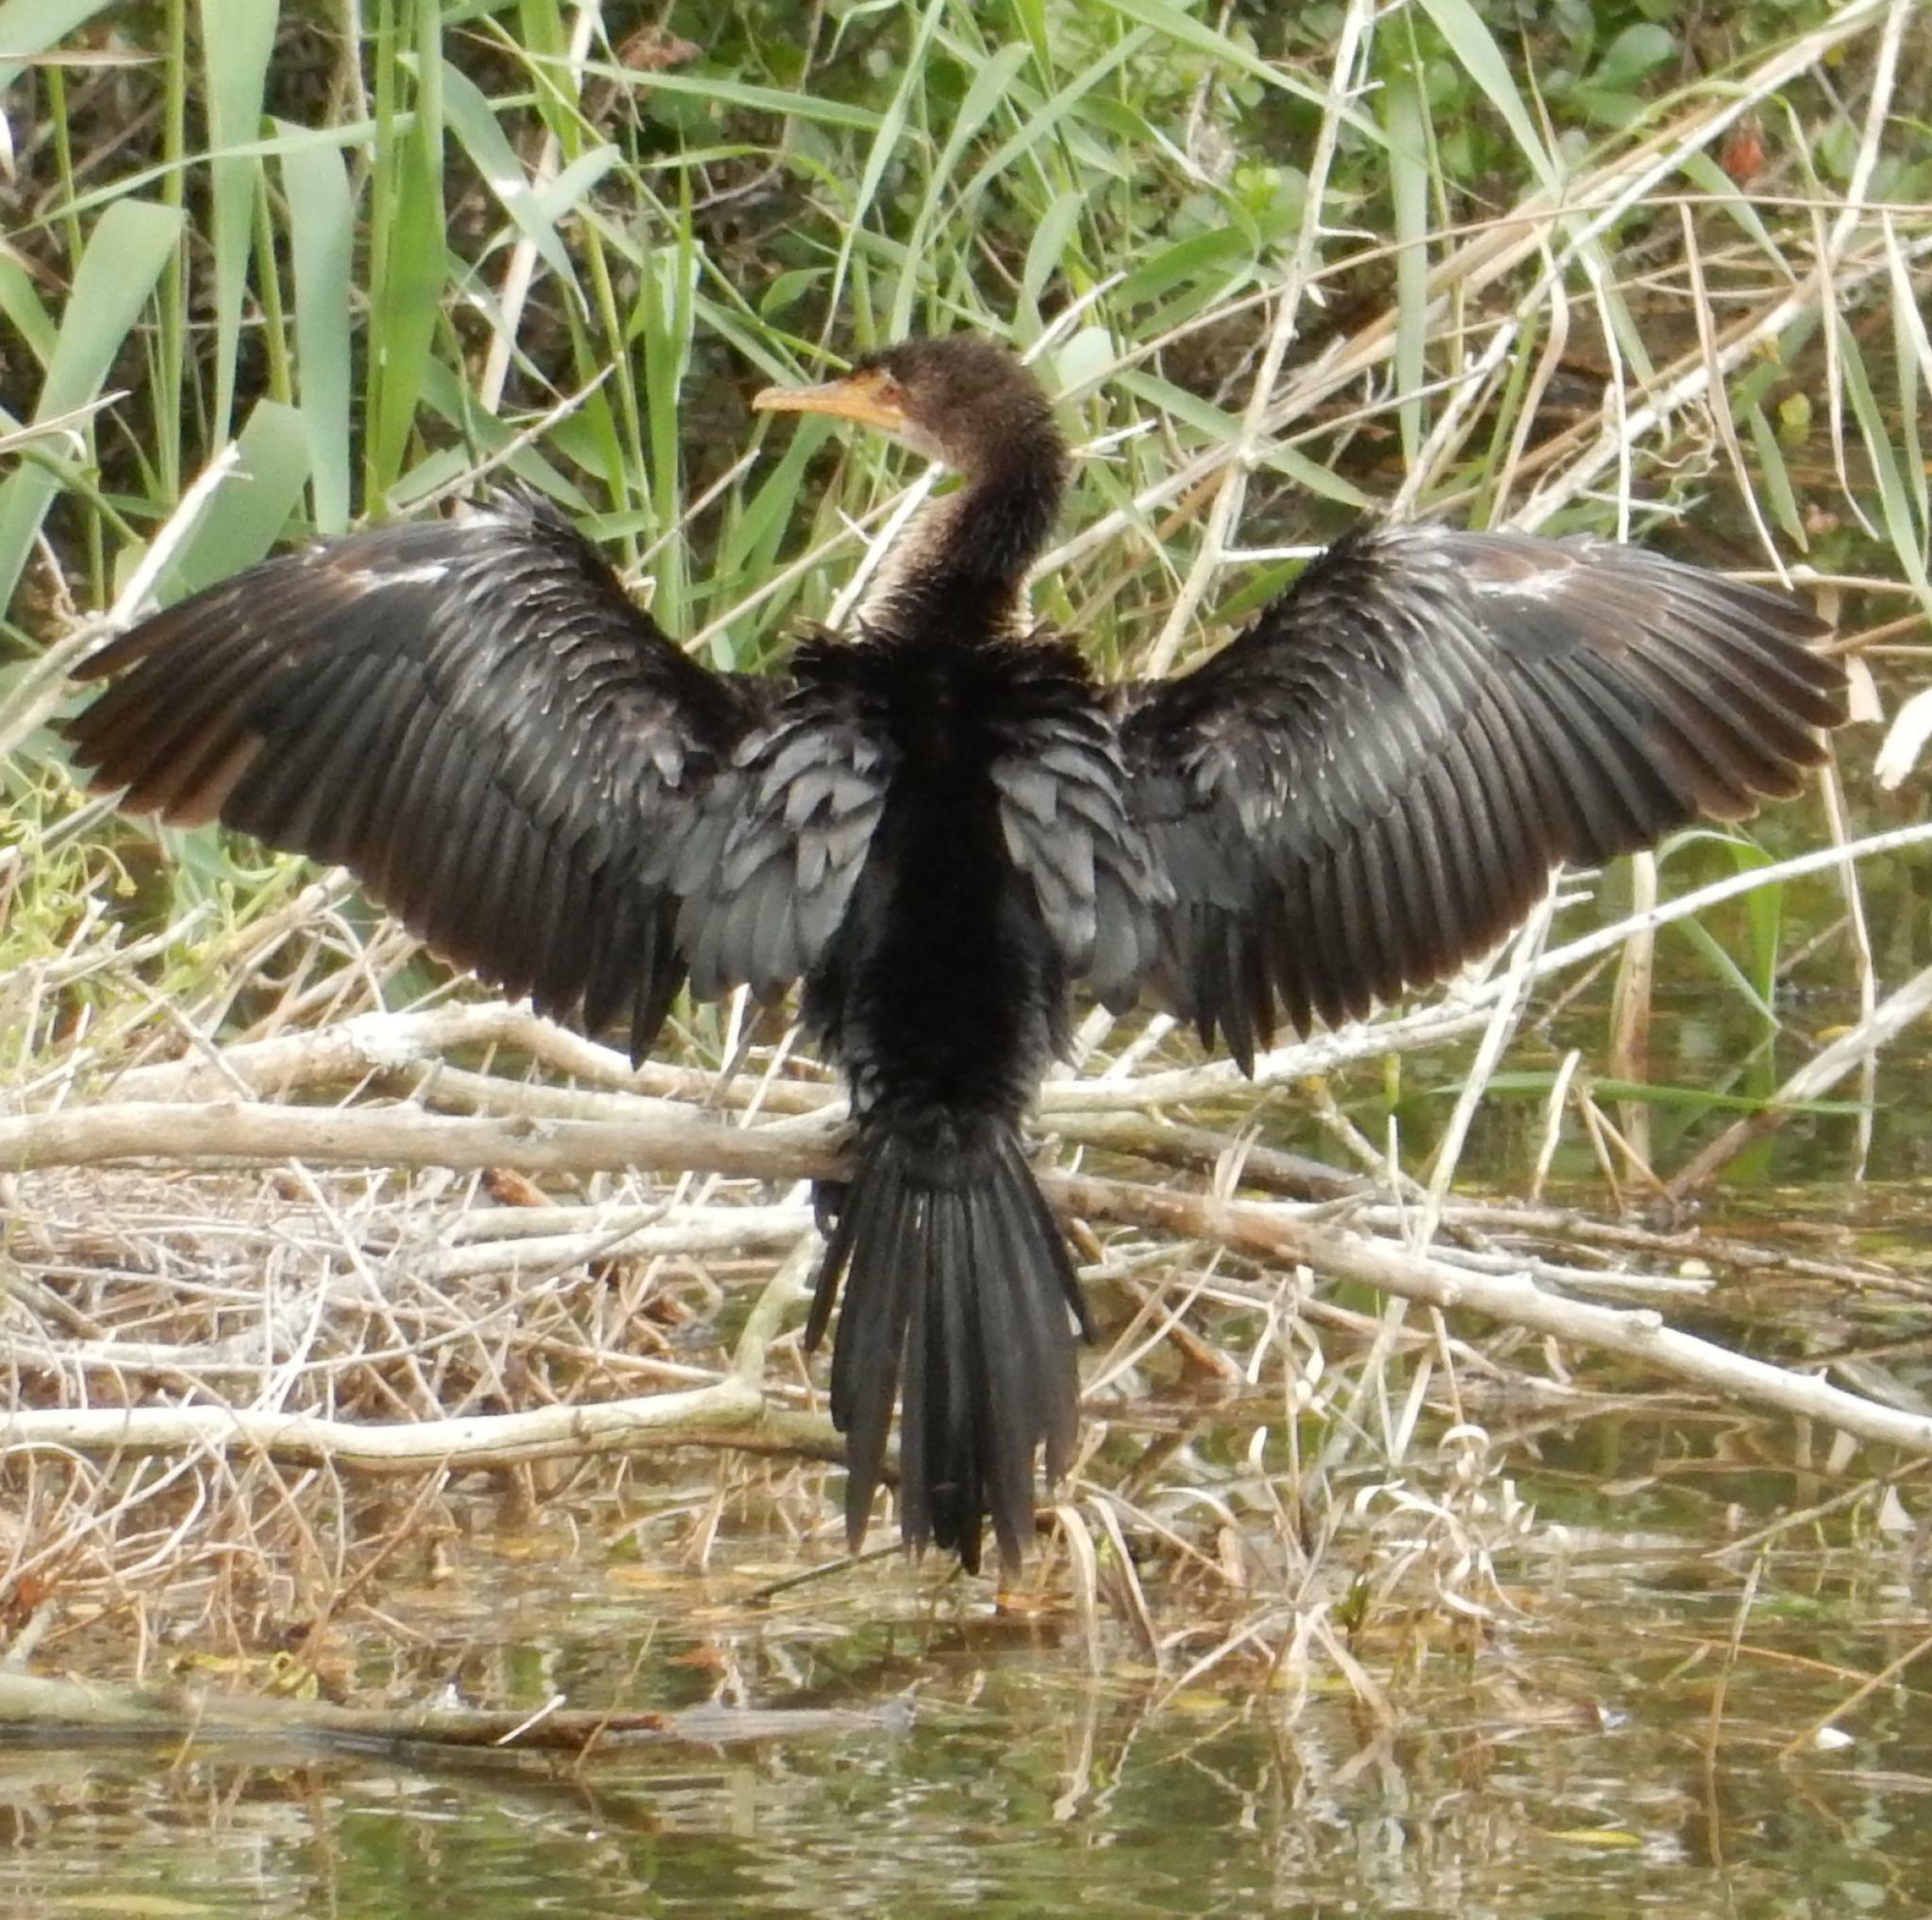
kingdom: Animalia
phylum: Chordata
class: Aves
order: Suliformes
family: Phalacrocoracidae
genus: Microcarbo
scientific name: Microcarbo africanus
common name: Long-tailed cormorant
